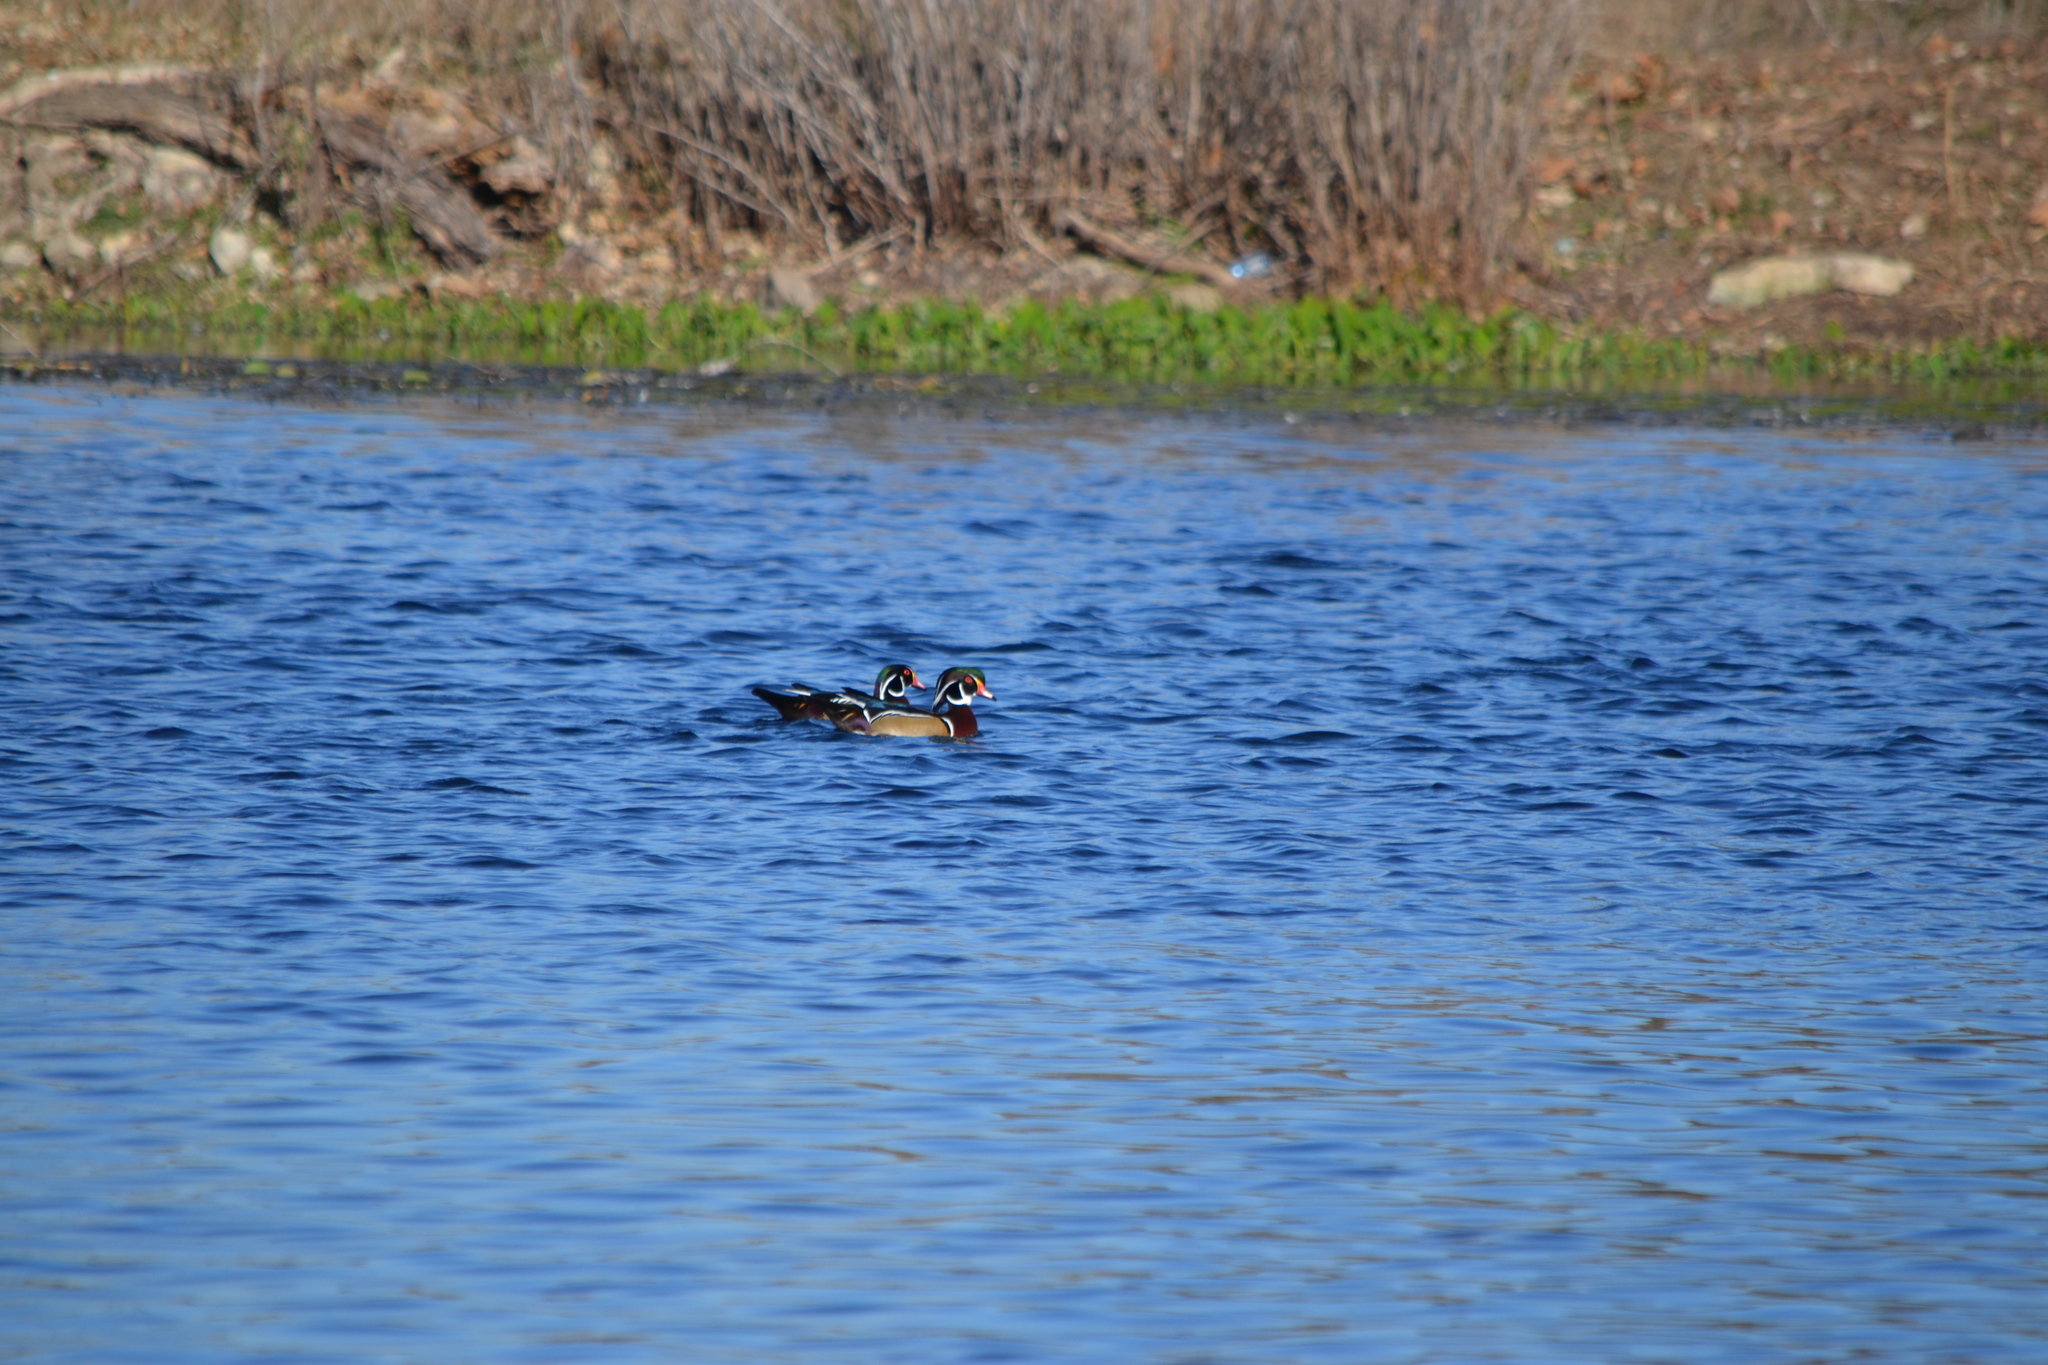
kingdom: Animalia
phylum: Chordata
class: Aves
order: Anseriformes
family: Anatidae
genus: Aix
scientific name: Aix sponsa
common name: Wood duck
